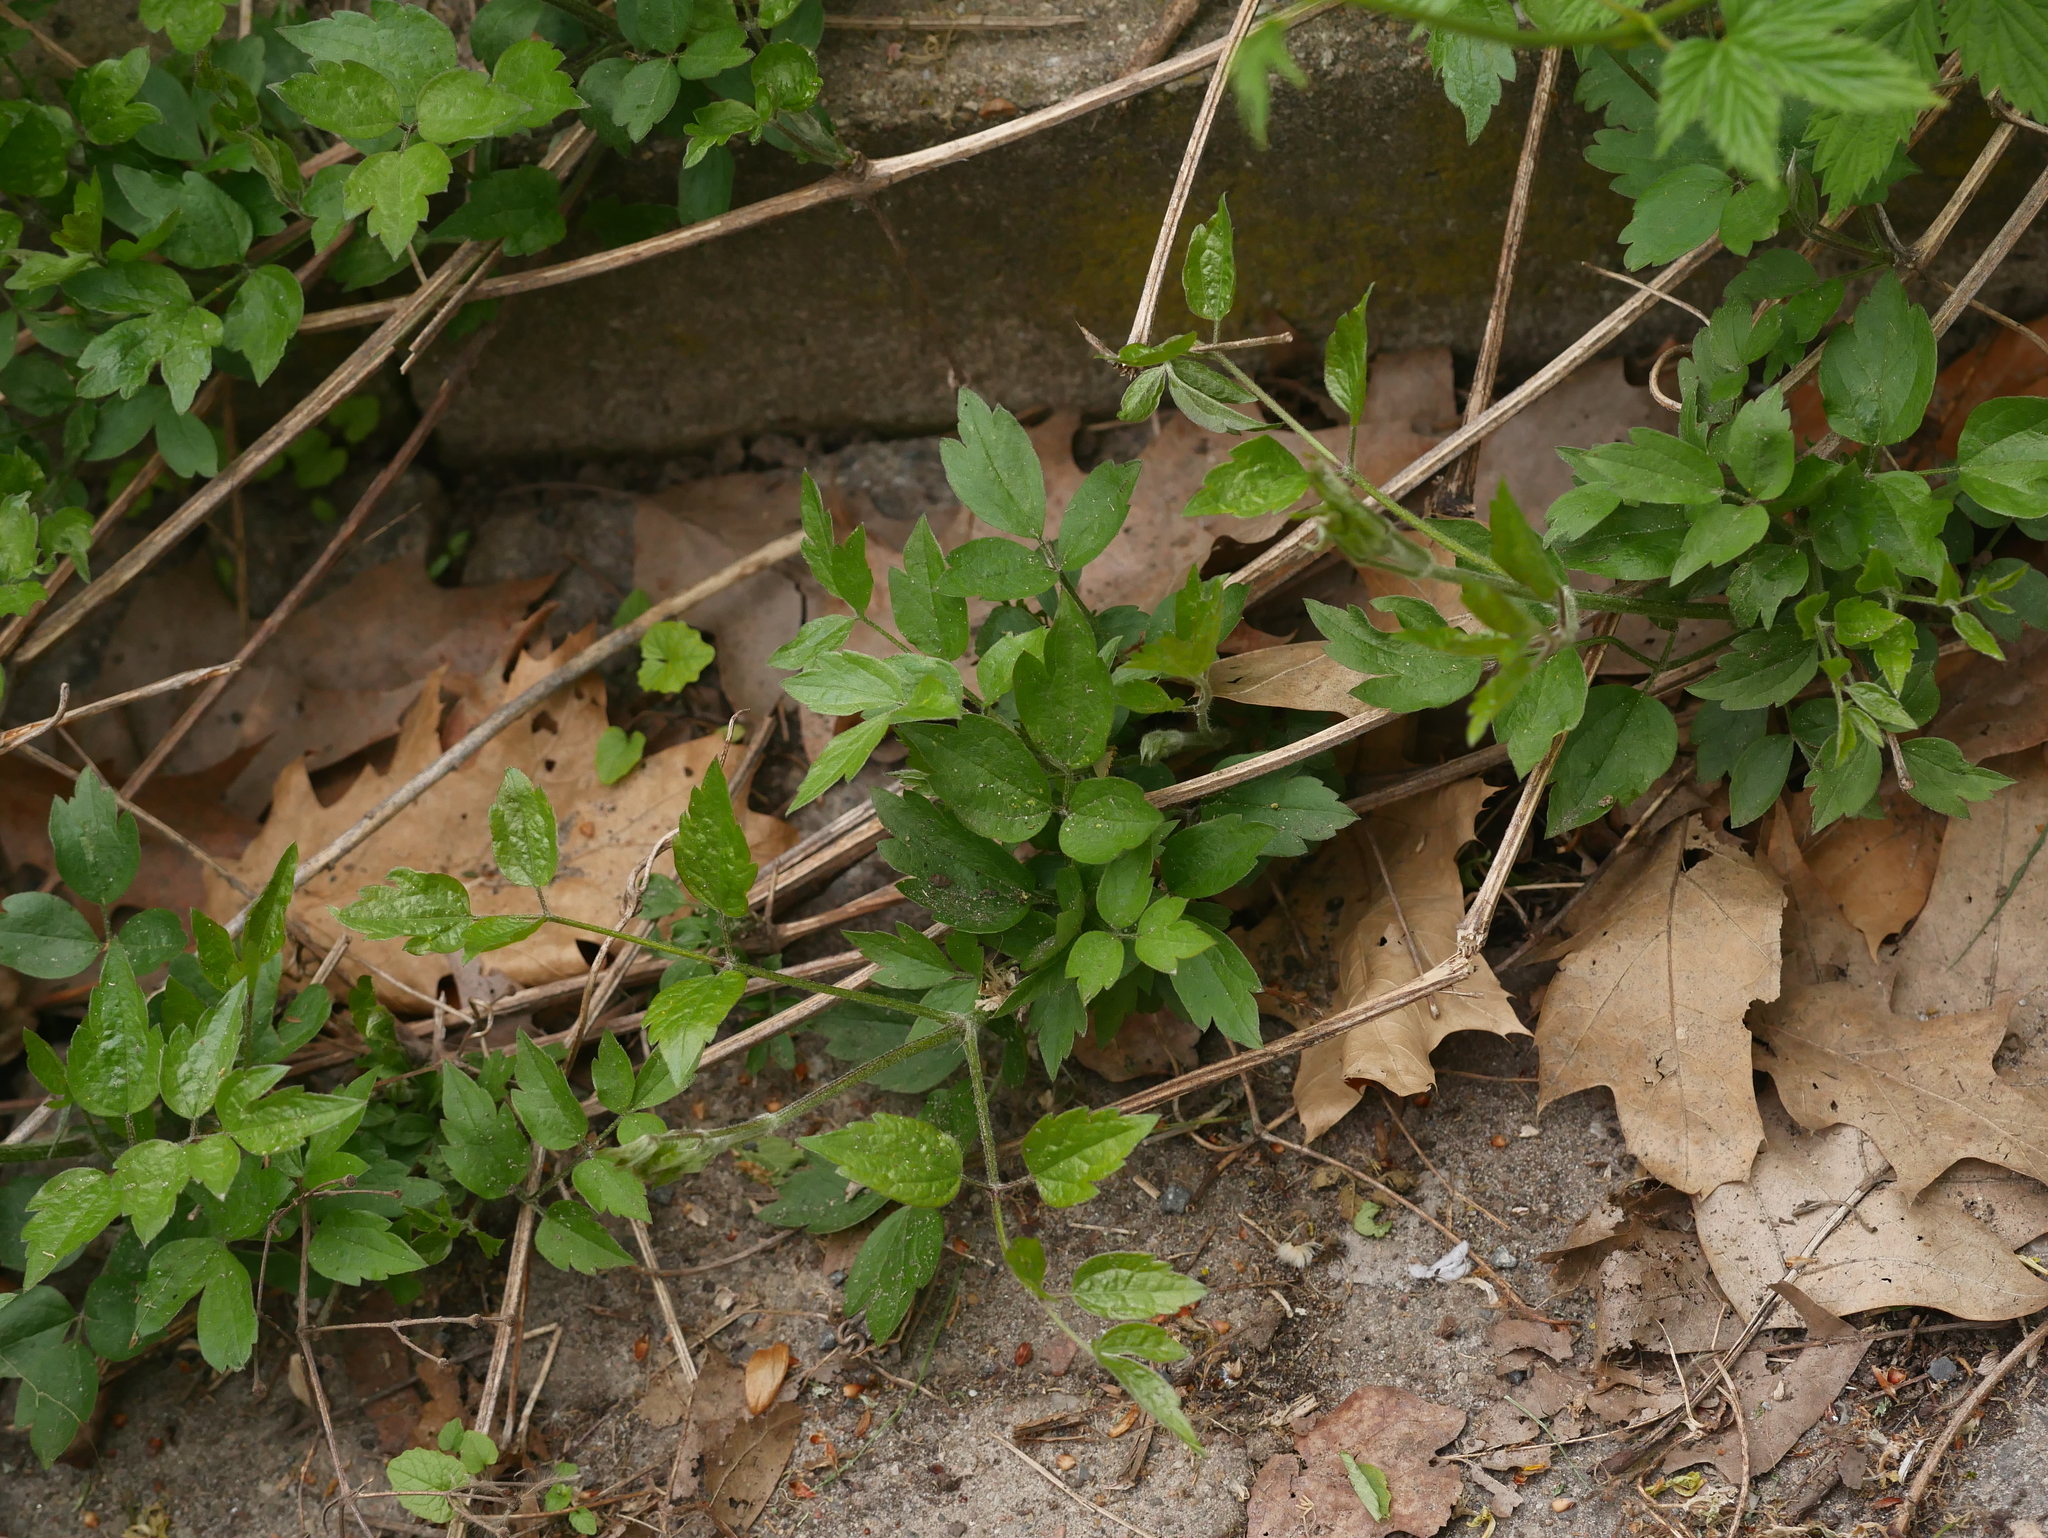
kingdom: Plantae
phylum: Tracheophyta
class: Magnoliopsida
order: Ranunculales
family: Ranunculaceae
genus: Clematis
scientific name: Clematis vitalba
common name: Evergreen clematis
